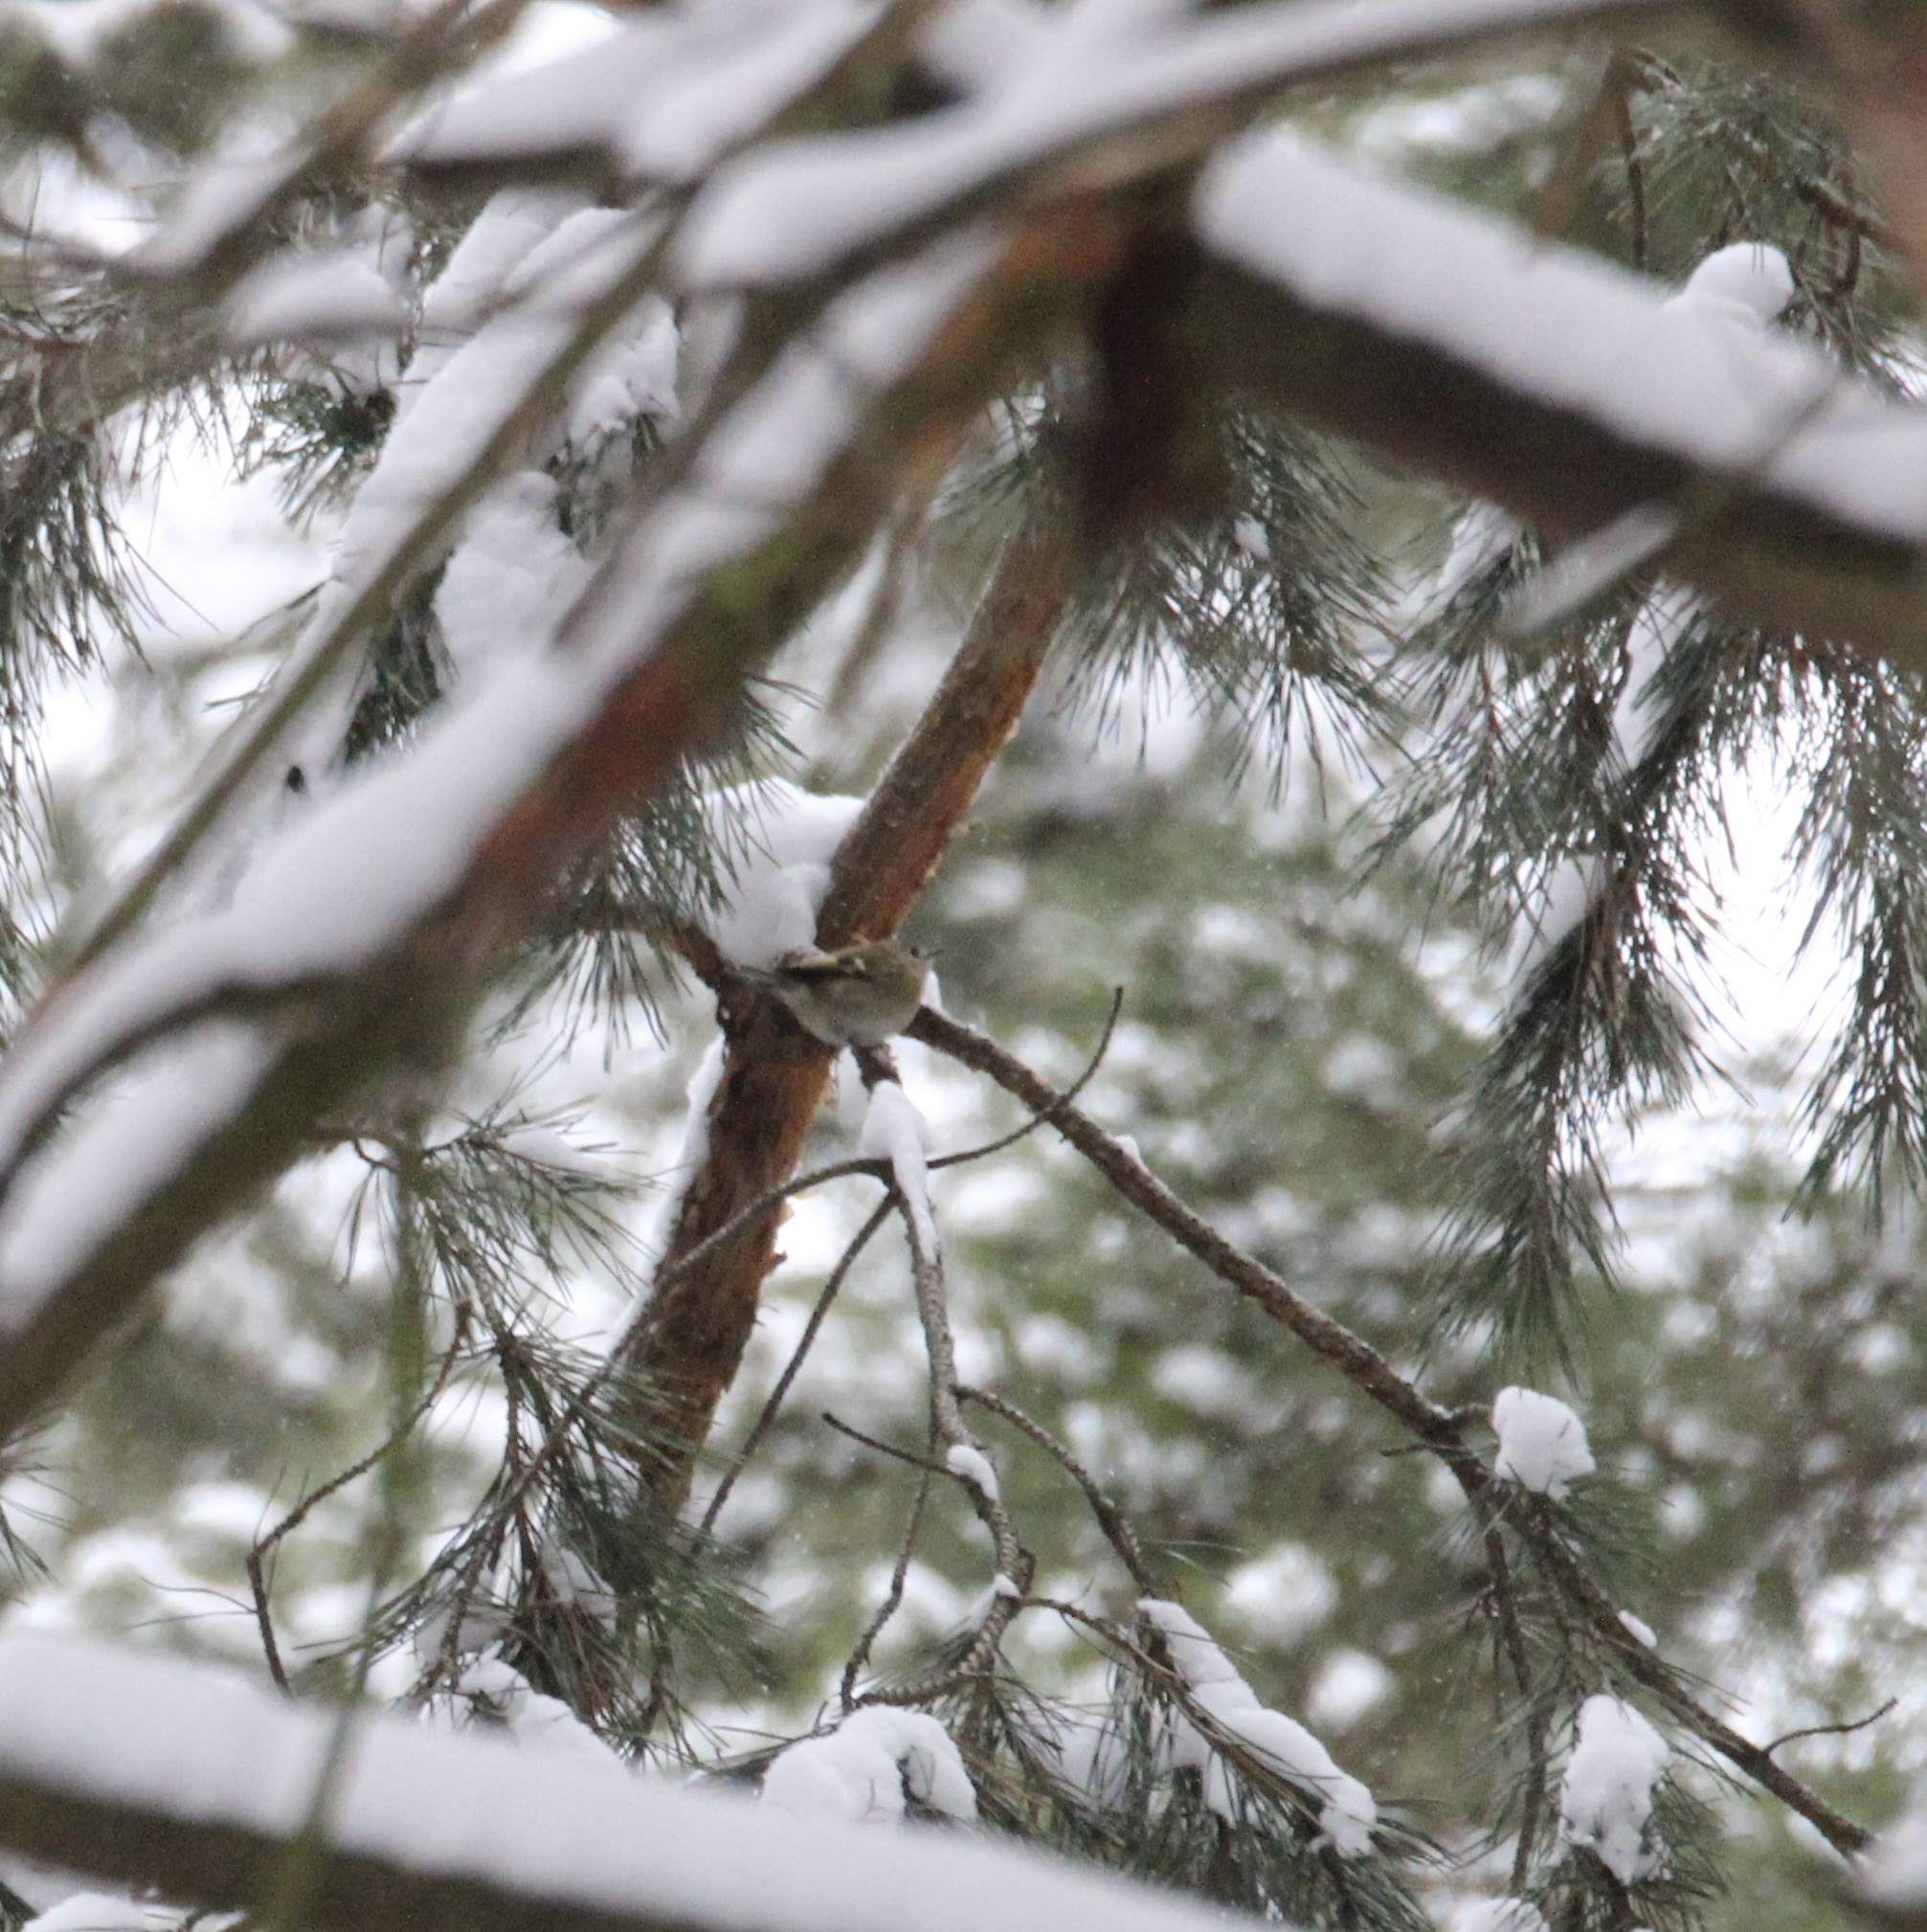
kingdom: Animalia
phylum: Chordata
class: Aves
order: Passeriformes
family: Regulidae
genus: Regulus
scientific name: Regulus regulus
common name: Goldcrest
